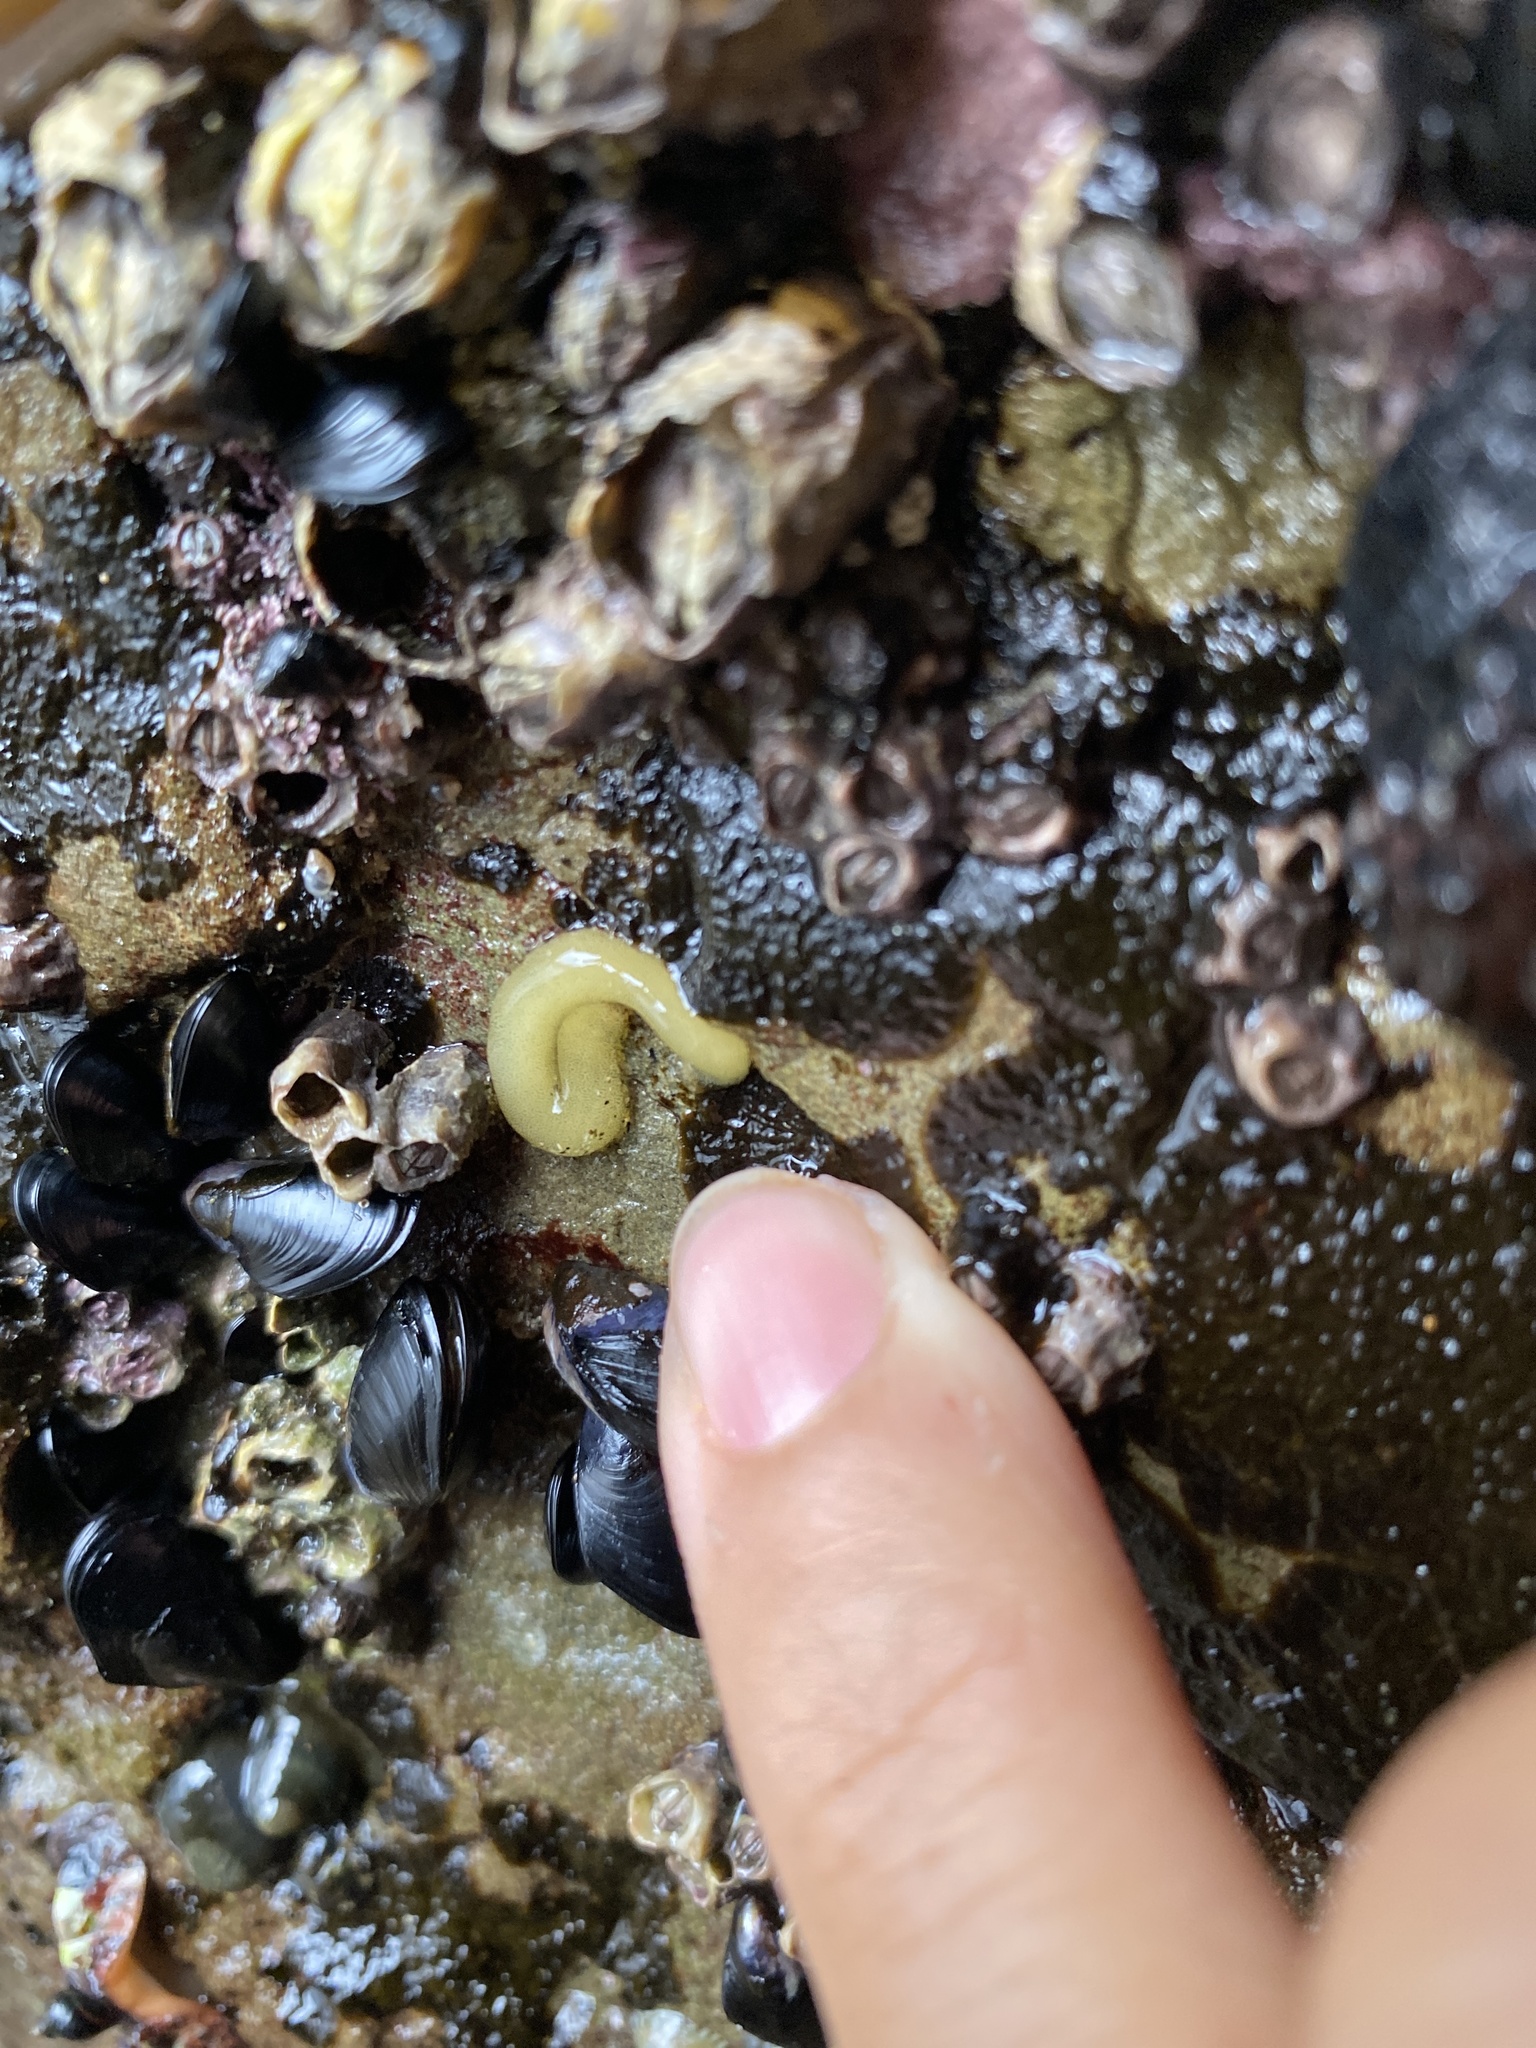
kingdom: Animalia
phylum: Mollusca
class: Gastropoda
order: Siphonariida
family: Siphonariidae
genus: Siphonaria
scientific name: Siphonaria australis
